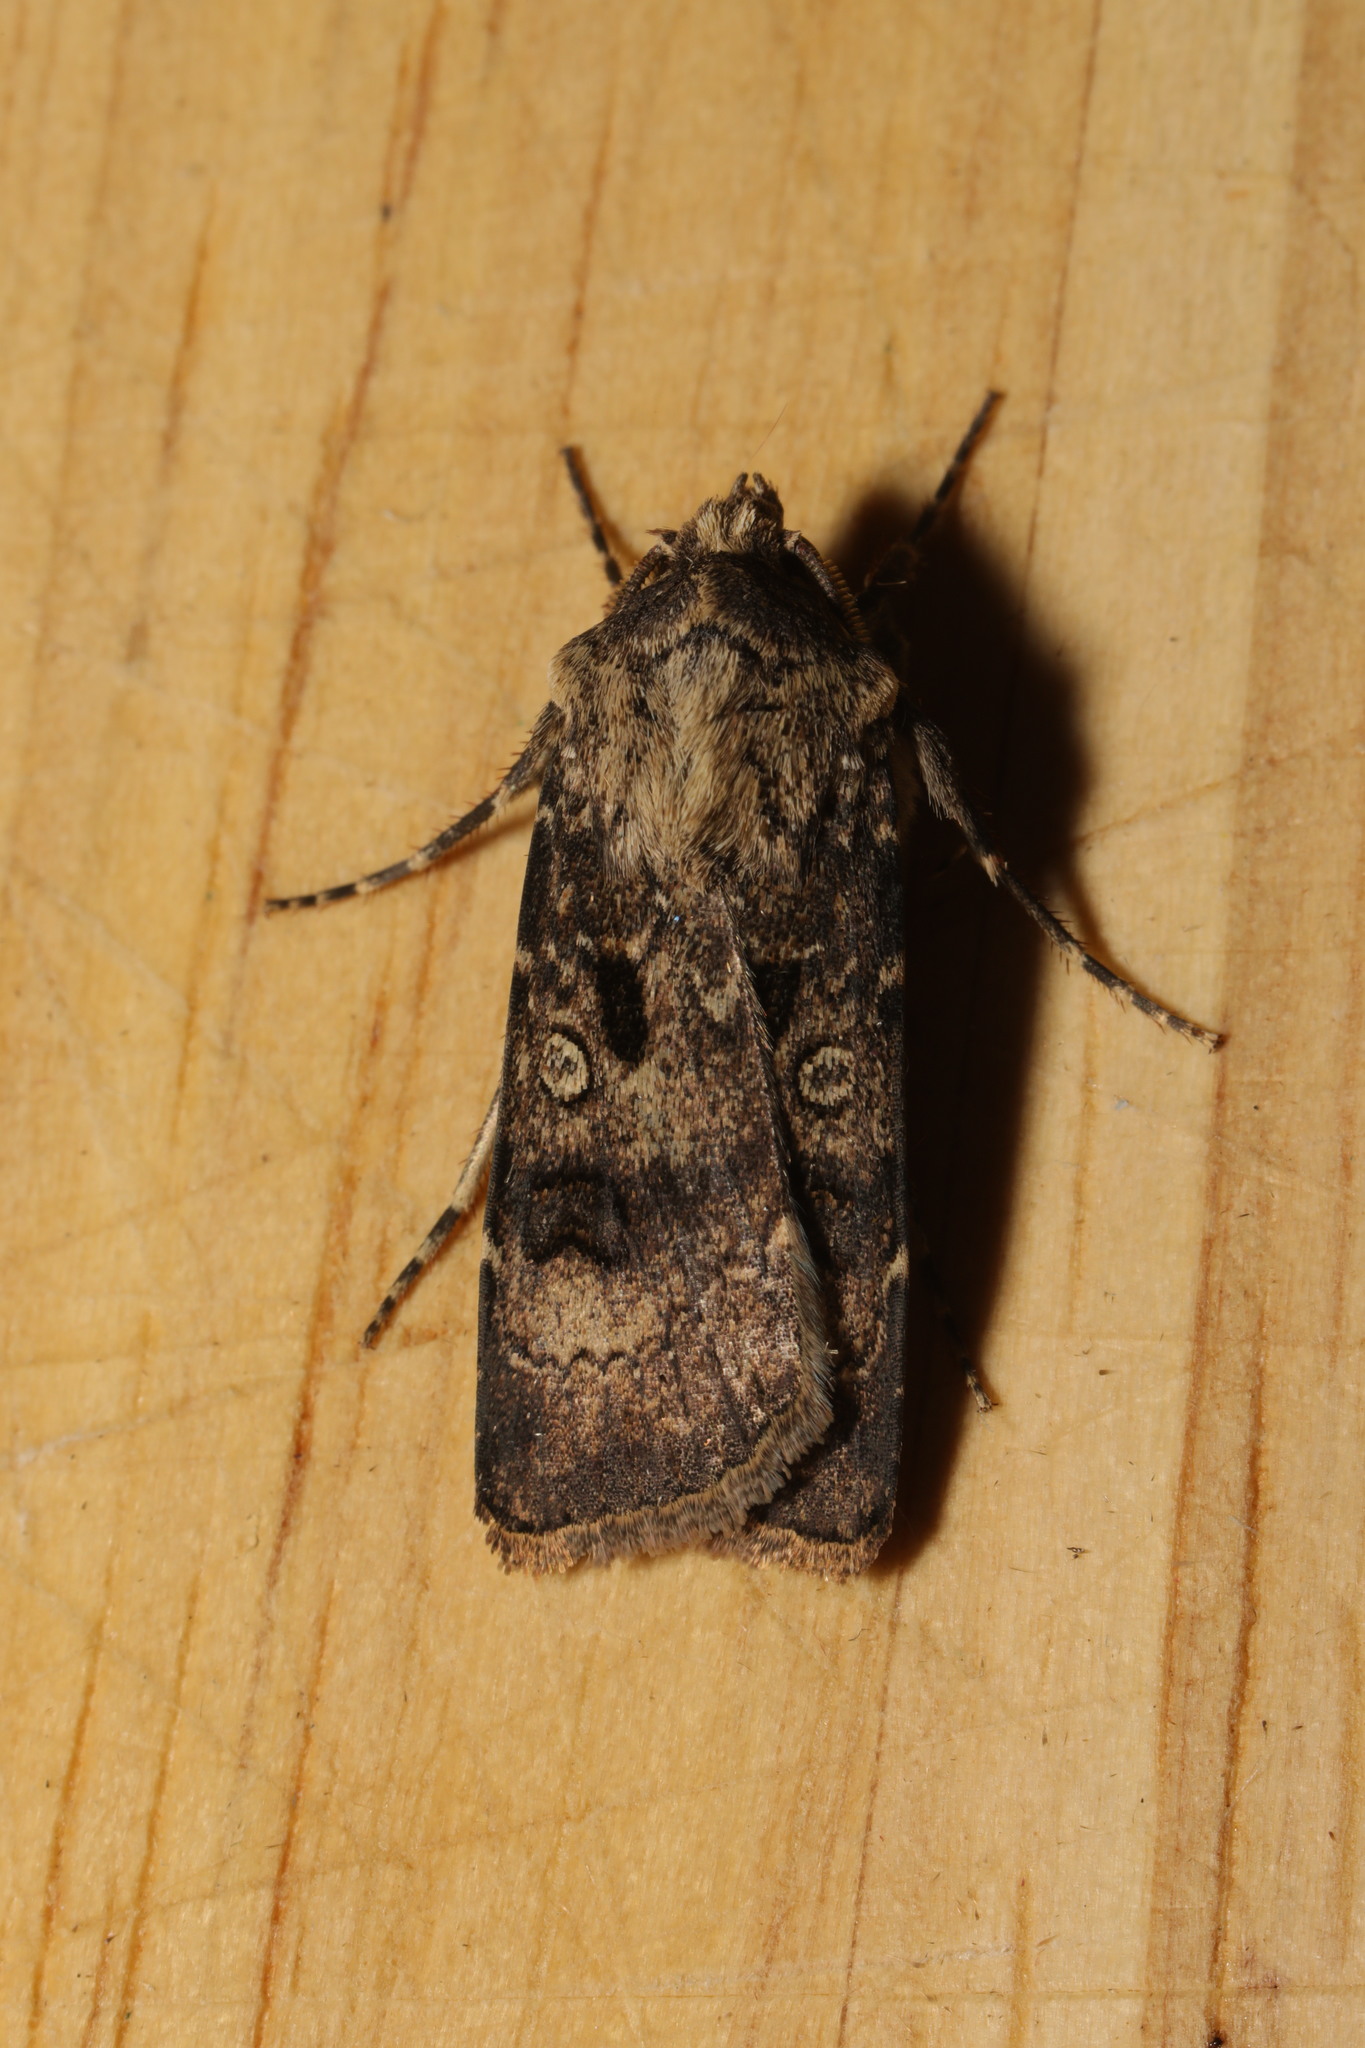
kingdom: Animalia
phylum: Arthropoda
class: Insecta
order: Lepidoptera
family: Noctuidae
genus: Agrotis
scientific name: Agrotis segetum
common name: Turnip moth
